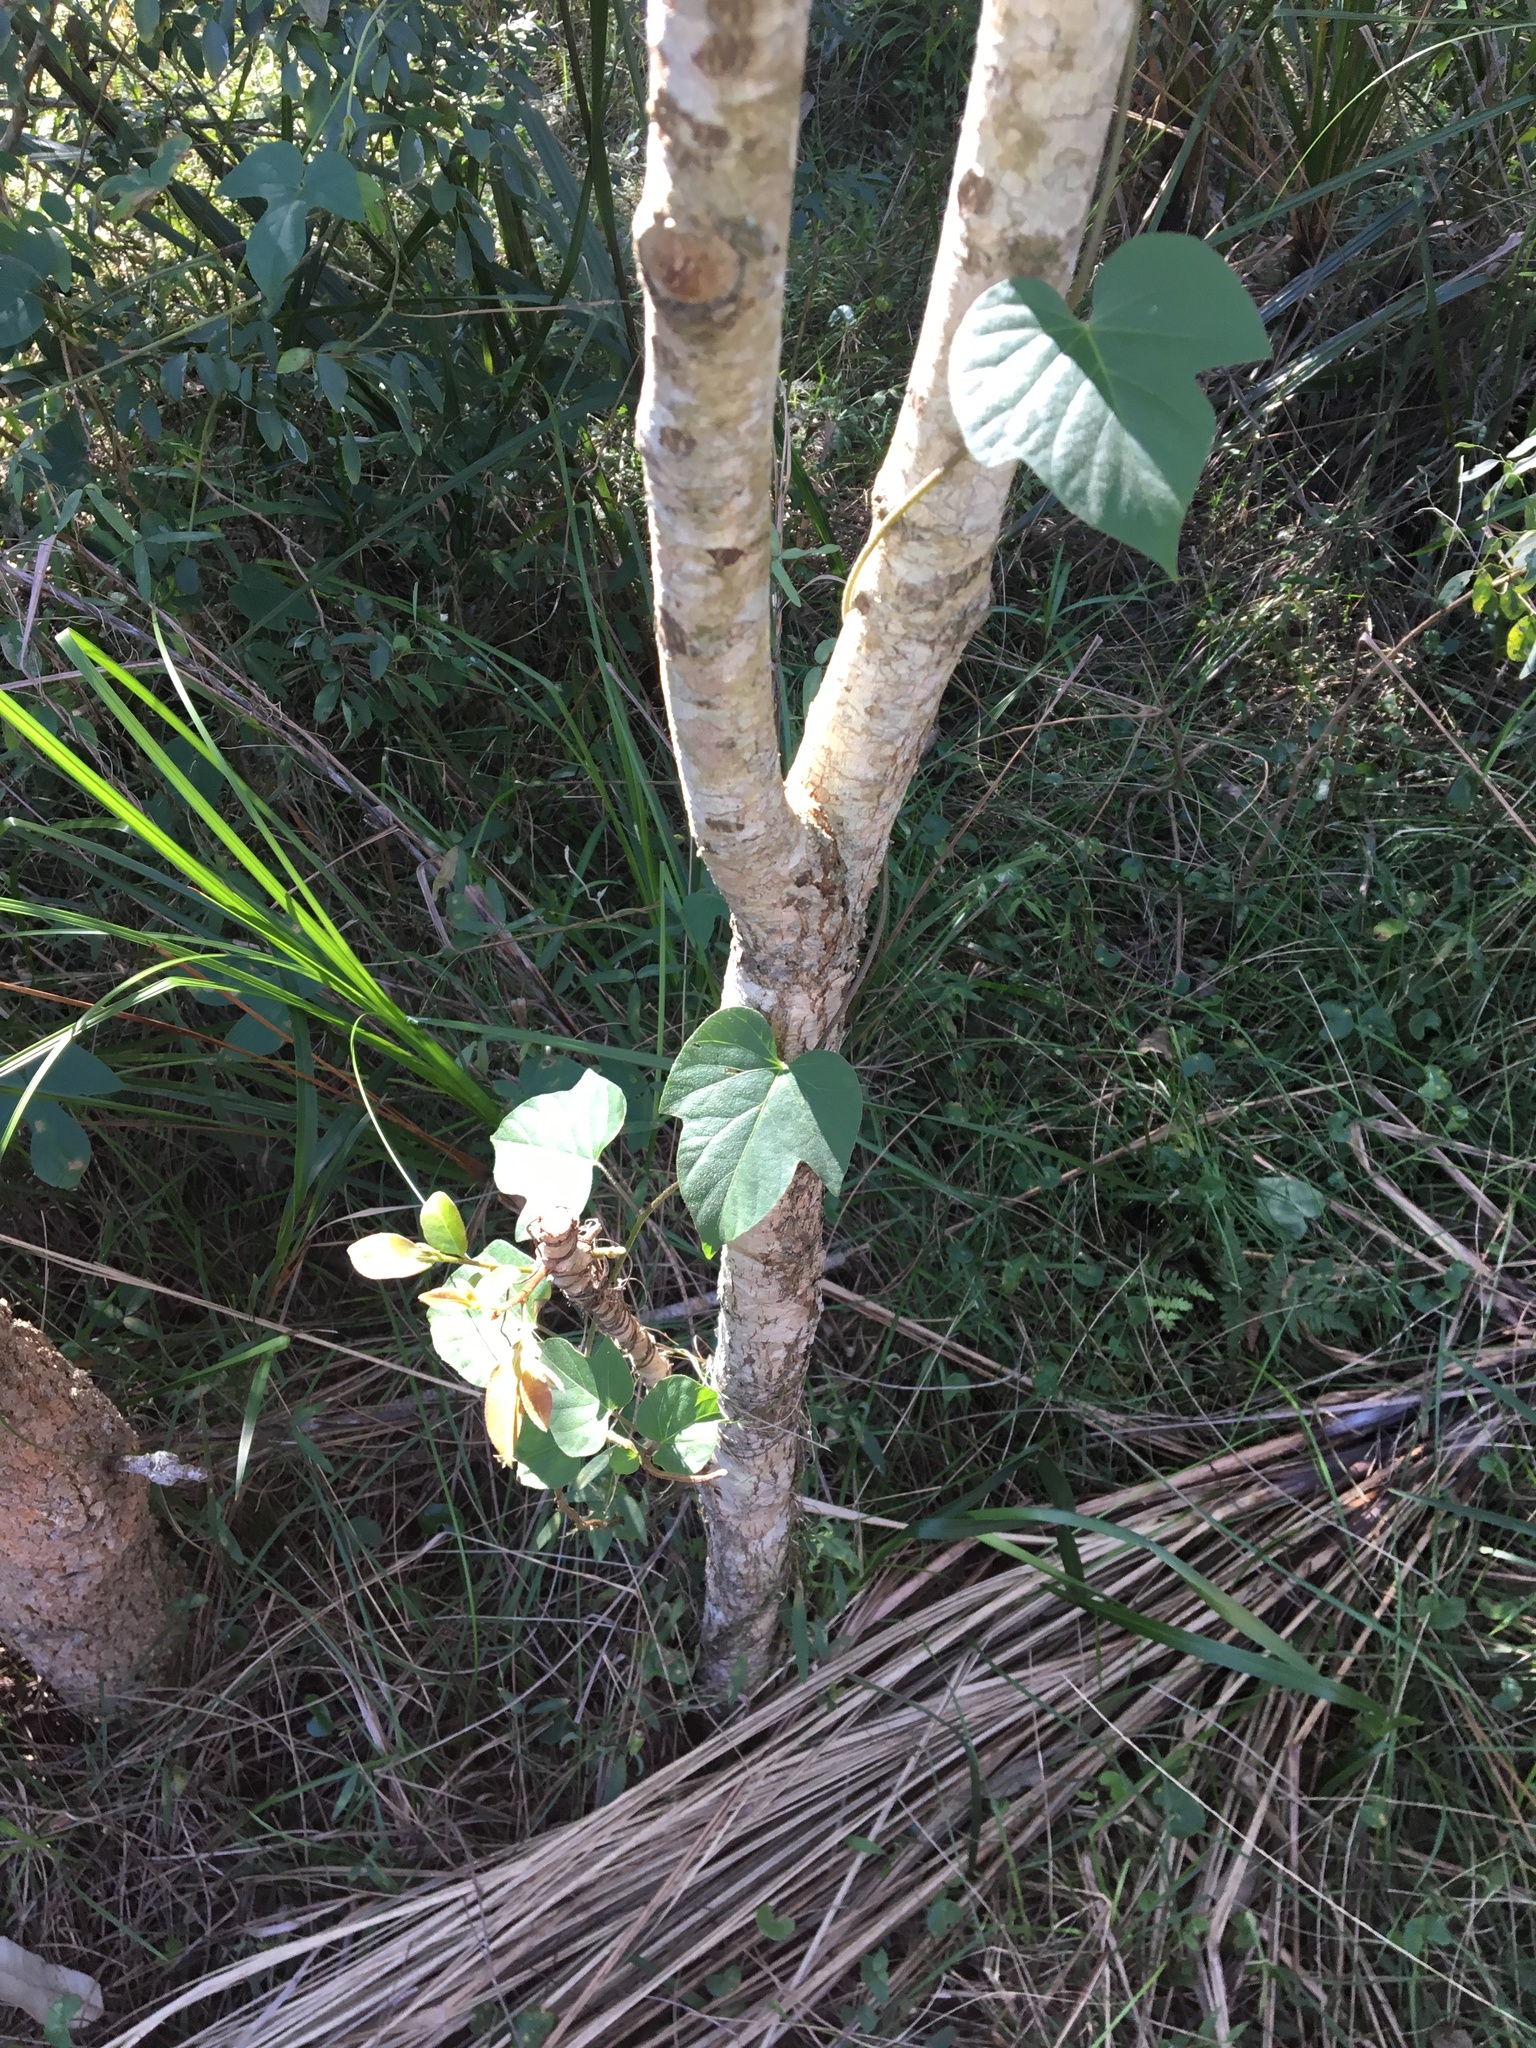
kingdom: Plantae
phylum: Tracheophyta
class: Magnoliopsida
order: Solanales
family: Convolvulaceae
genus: Ipomoea
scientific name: Ipomoea indica
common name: Blue dawnflower
